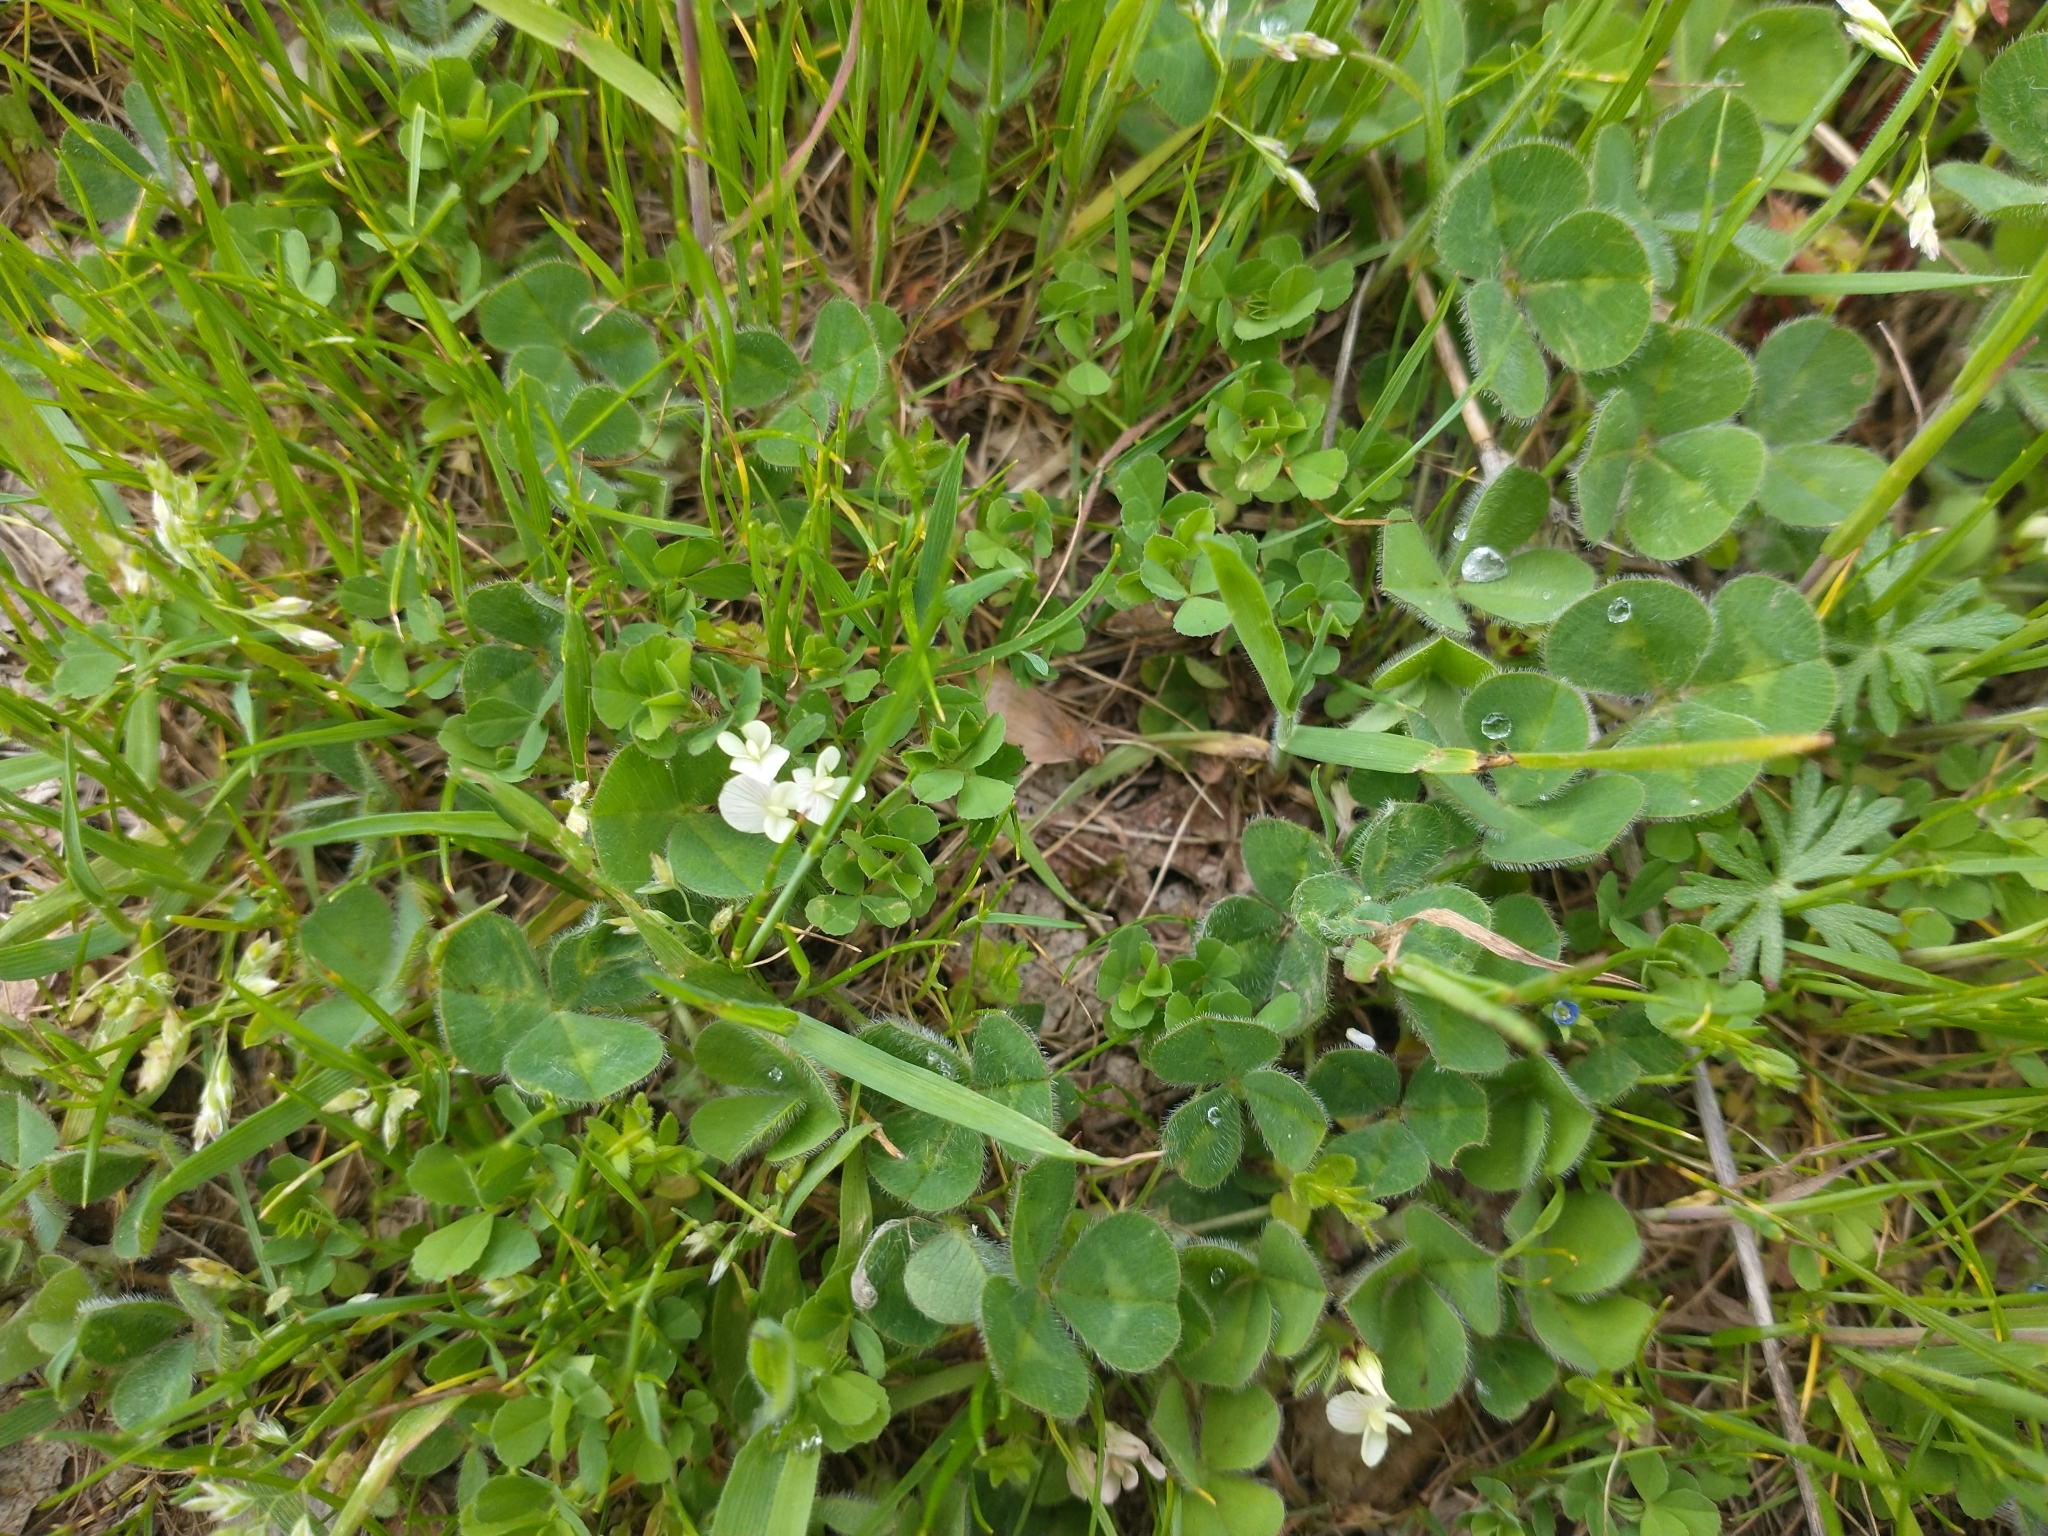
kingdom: Plantae
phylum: Tracheophyta
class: Magnoliopsida
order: Fabales
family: Fabaceae
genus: Trifolium
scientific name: Trifolium subterraneum
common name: Subterranean clover
